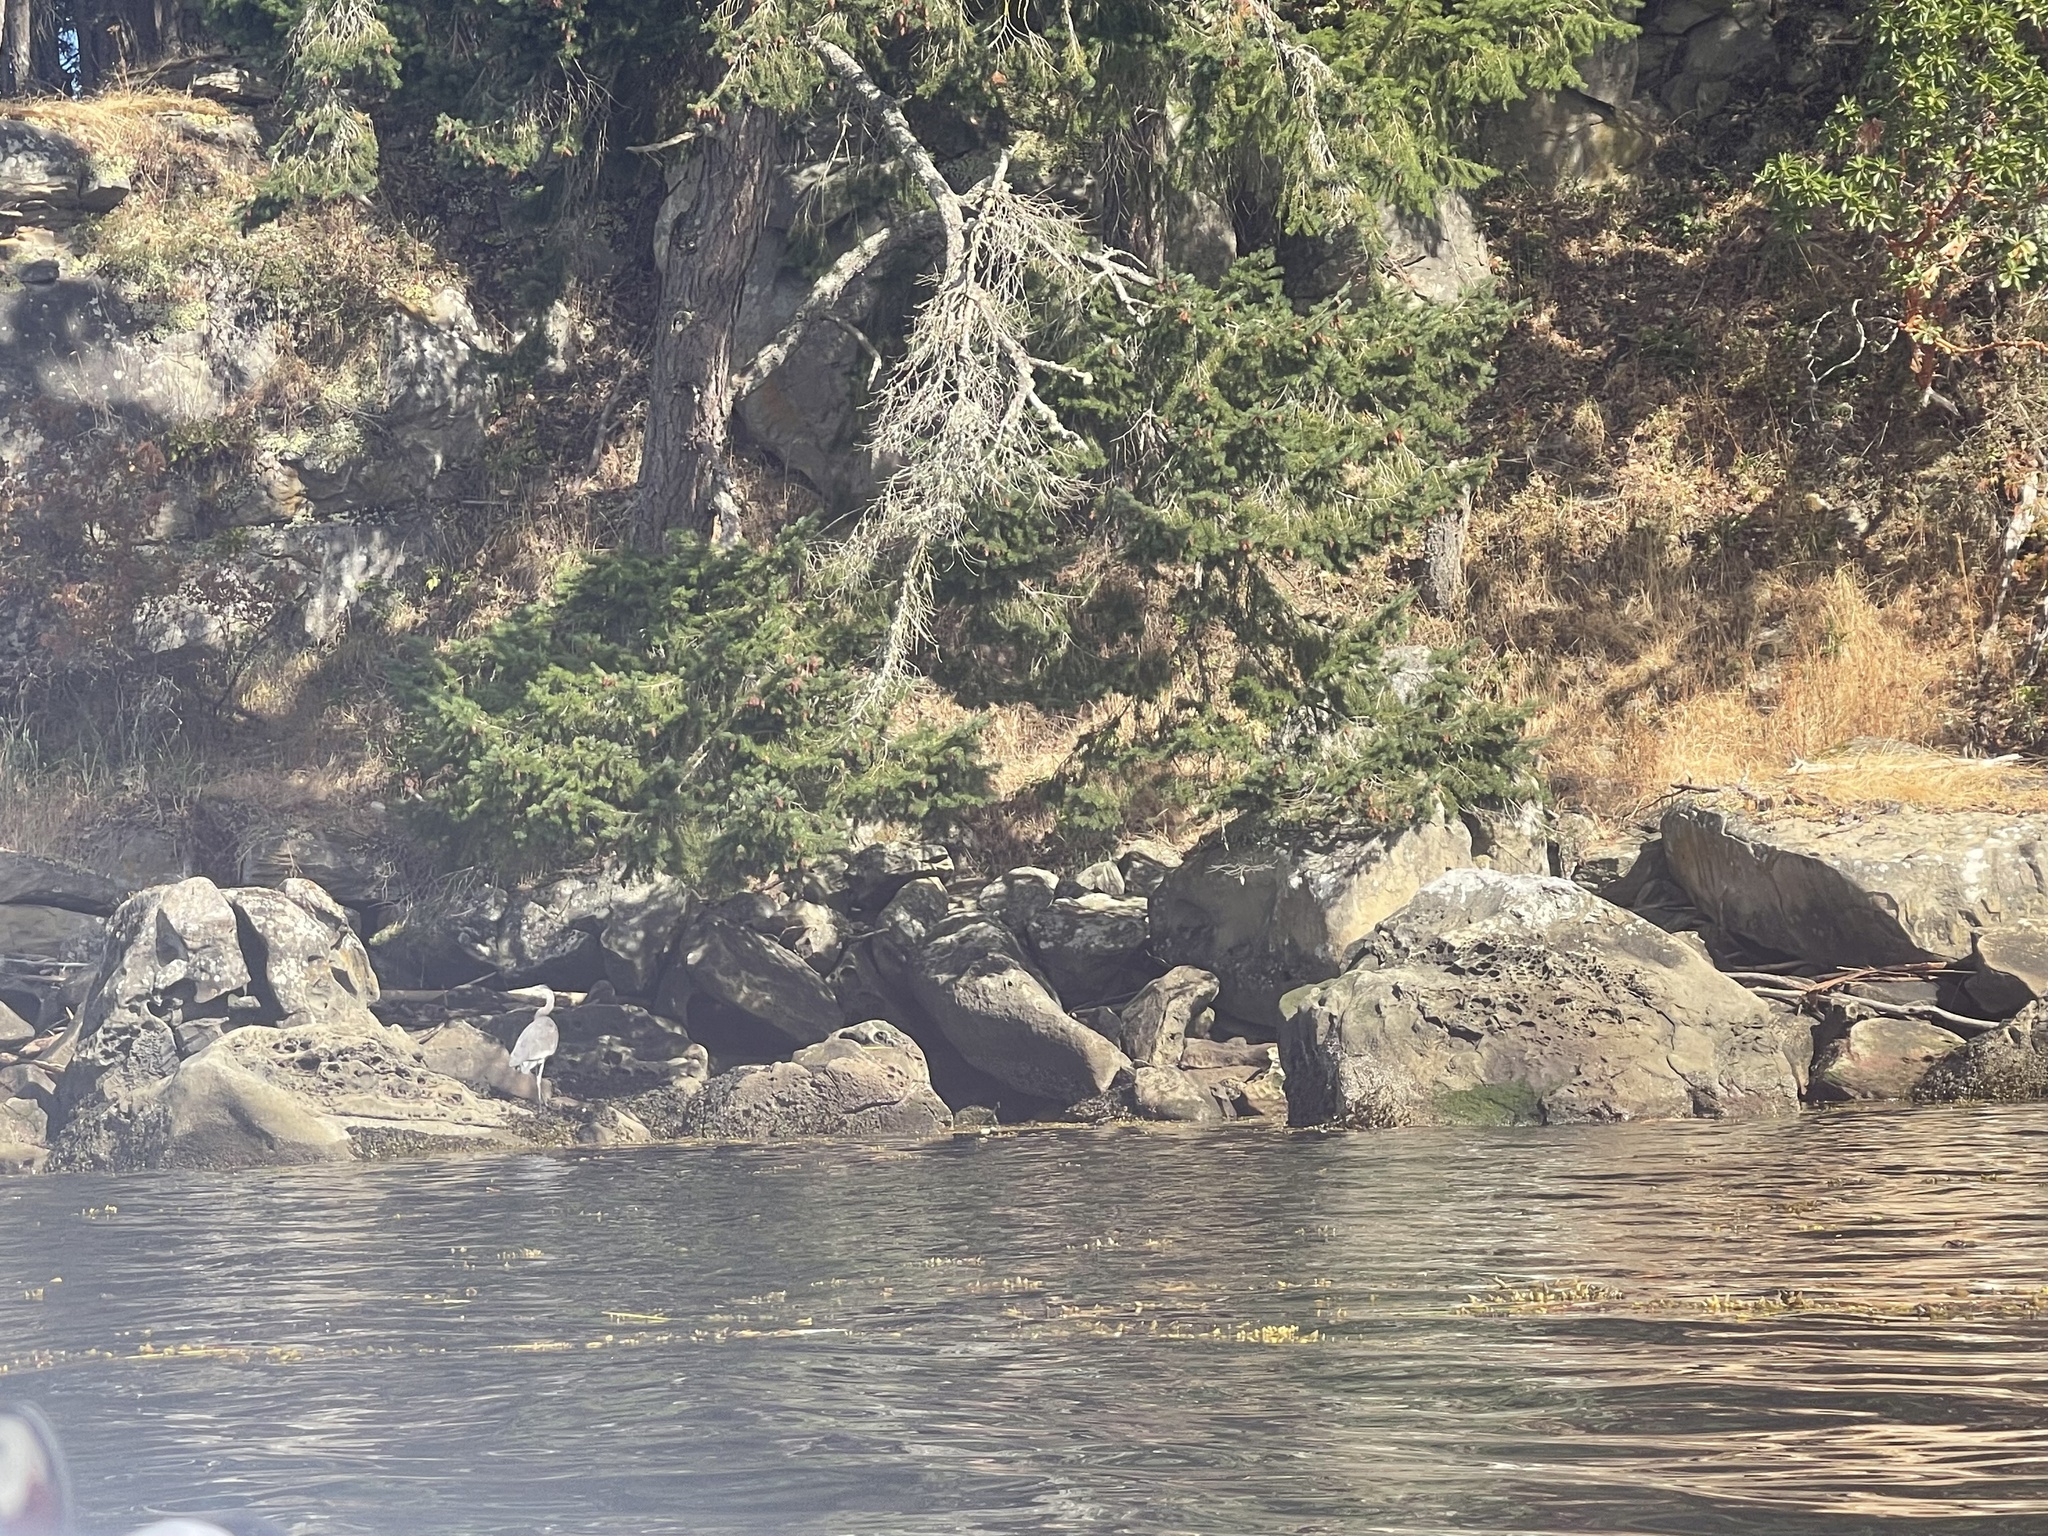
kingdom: Animalia
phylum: Chordata
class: Aves
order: Pelecaniformes
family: Ardeidae
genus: Ardea
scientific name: Ardea herodias
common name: Great blue heron
